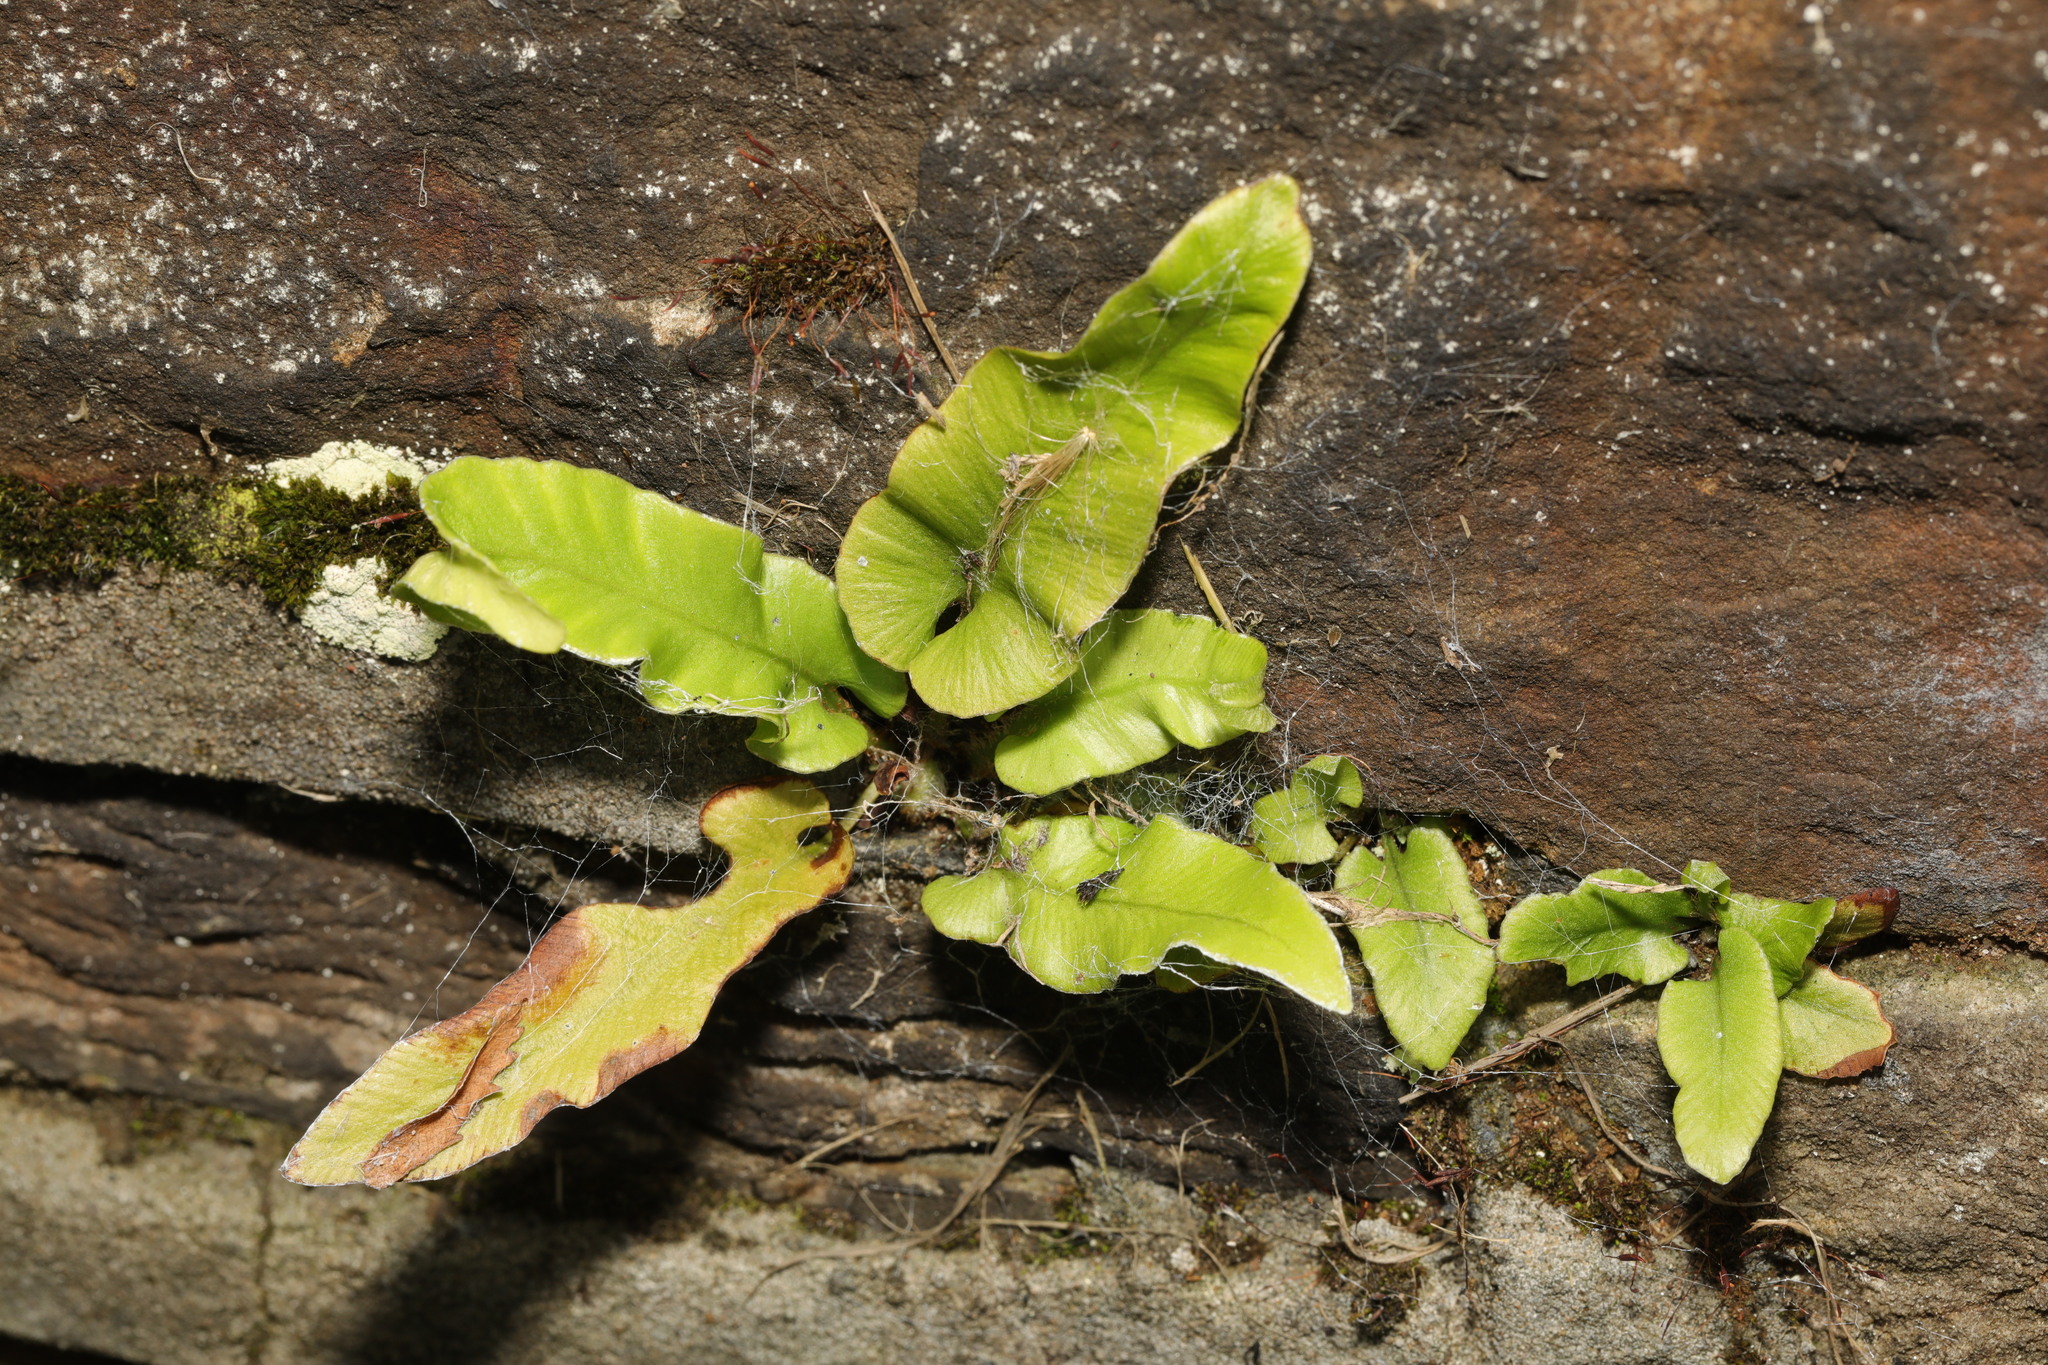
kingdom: Plantae
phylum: Tracheophyta
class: Polypodiopsida
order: Polypodiales
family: Aspleniaceae
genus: Asplenium
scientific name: Asplenium scolopendrium
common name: Hart's-tongue fern
